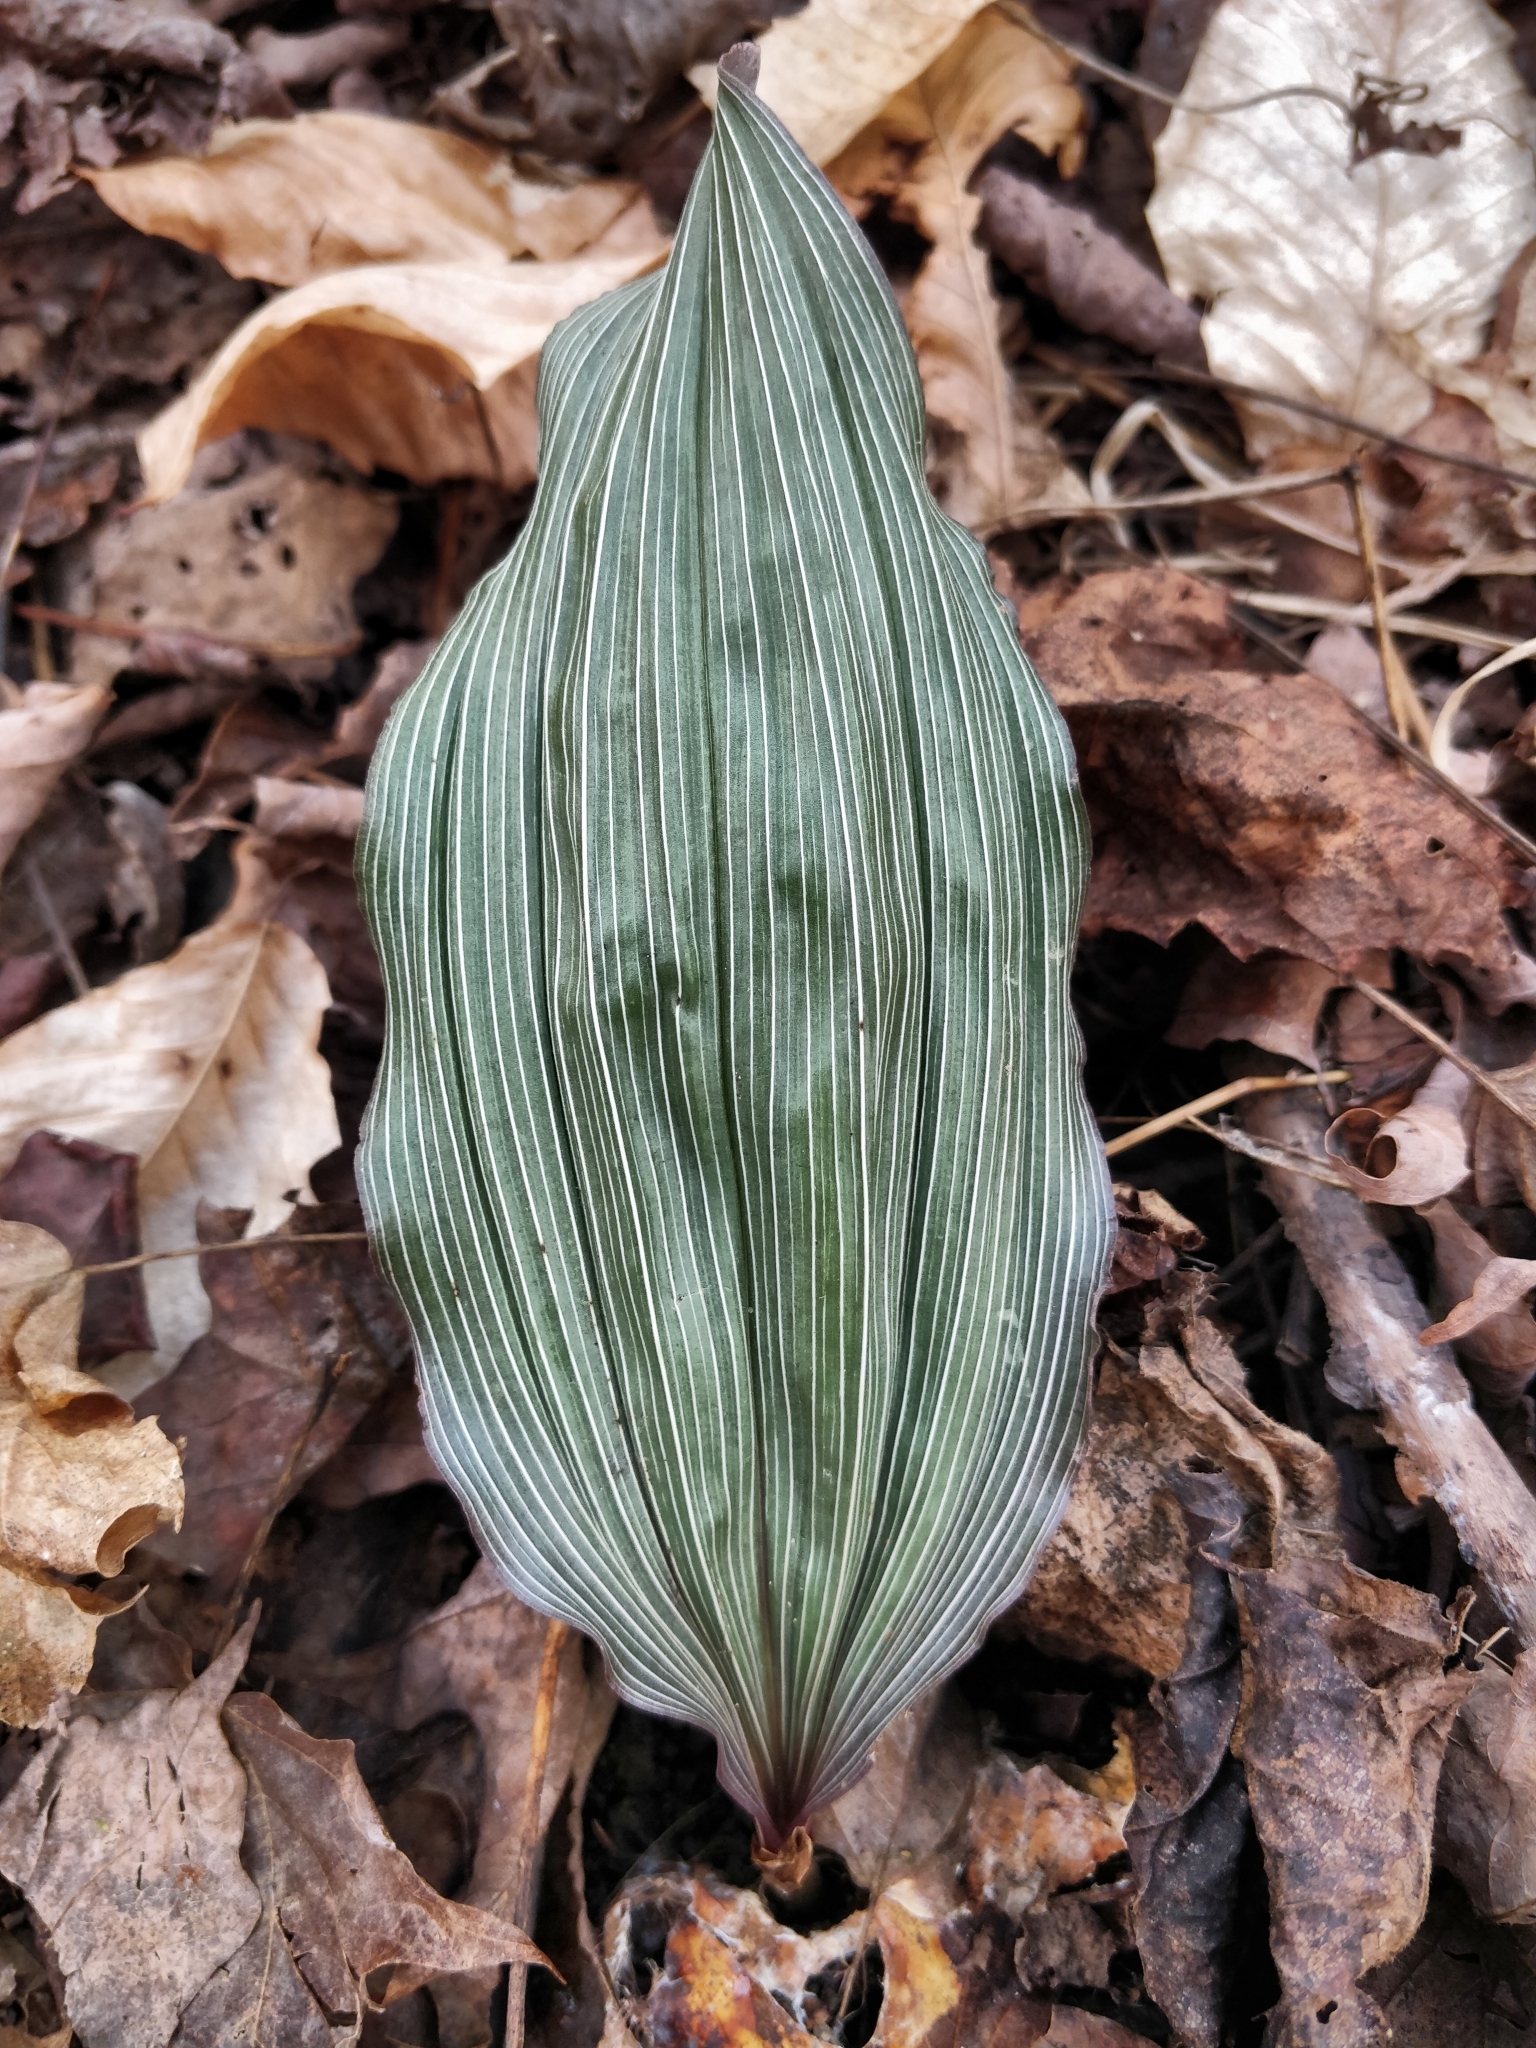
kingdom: Plantae
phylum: Tracheophyta
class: Liliopsida
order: Asparagales
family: Orchidaceae
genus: Aplectrum
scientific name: Aplectrum hyemale
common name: Adam-and-eve
